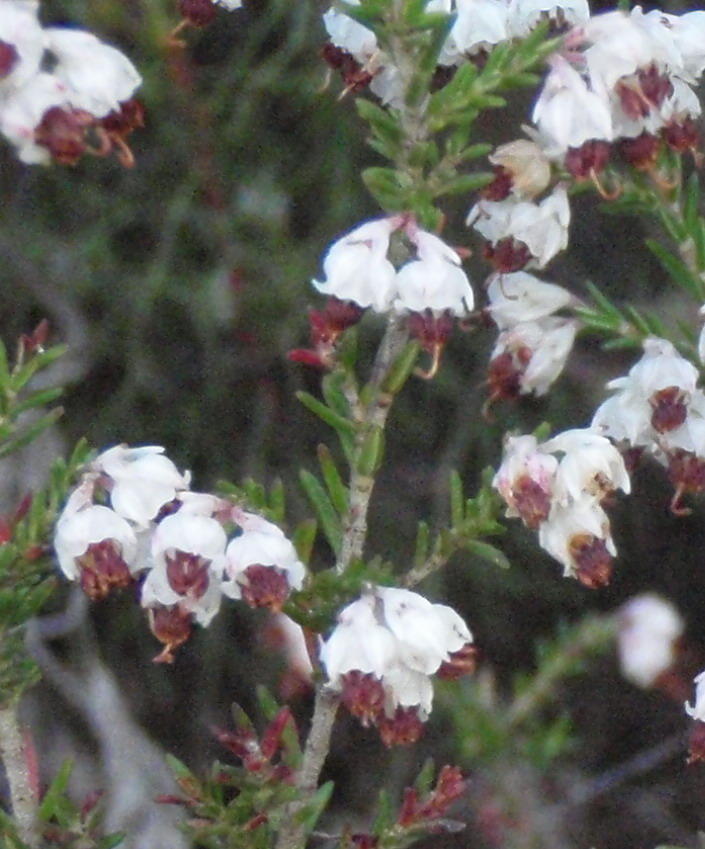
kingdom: Plantae
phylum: Tracheophyta
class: Magnoliopsida
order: Ericales
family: Ericaceae
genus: Erica
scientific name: Erica triceps
